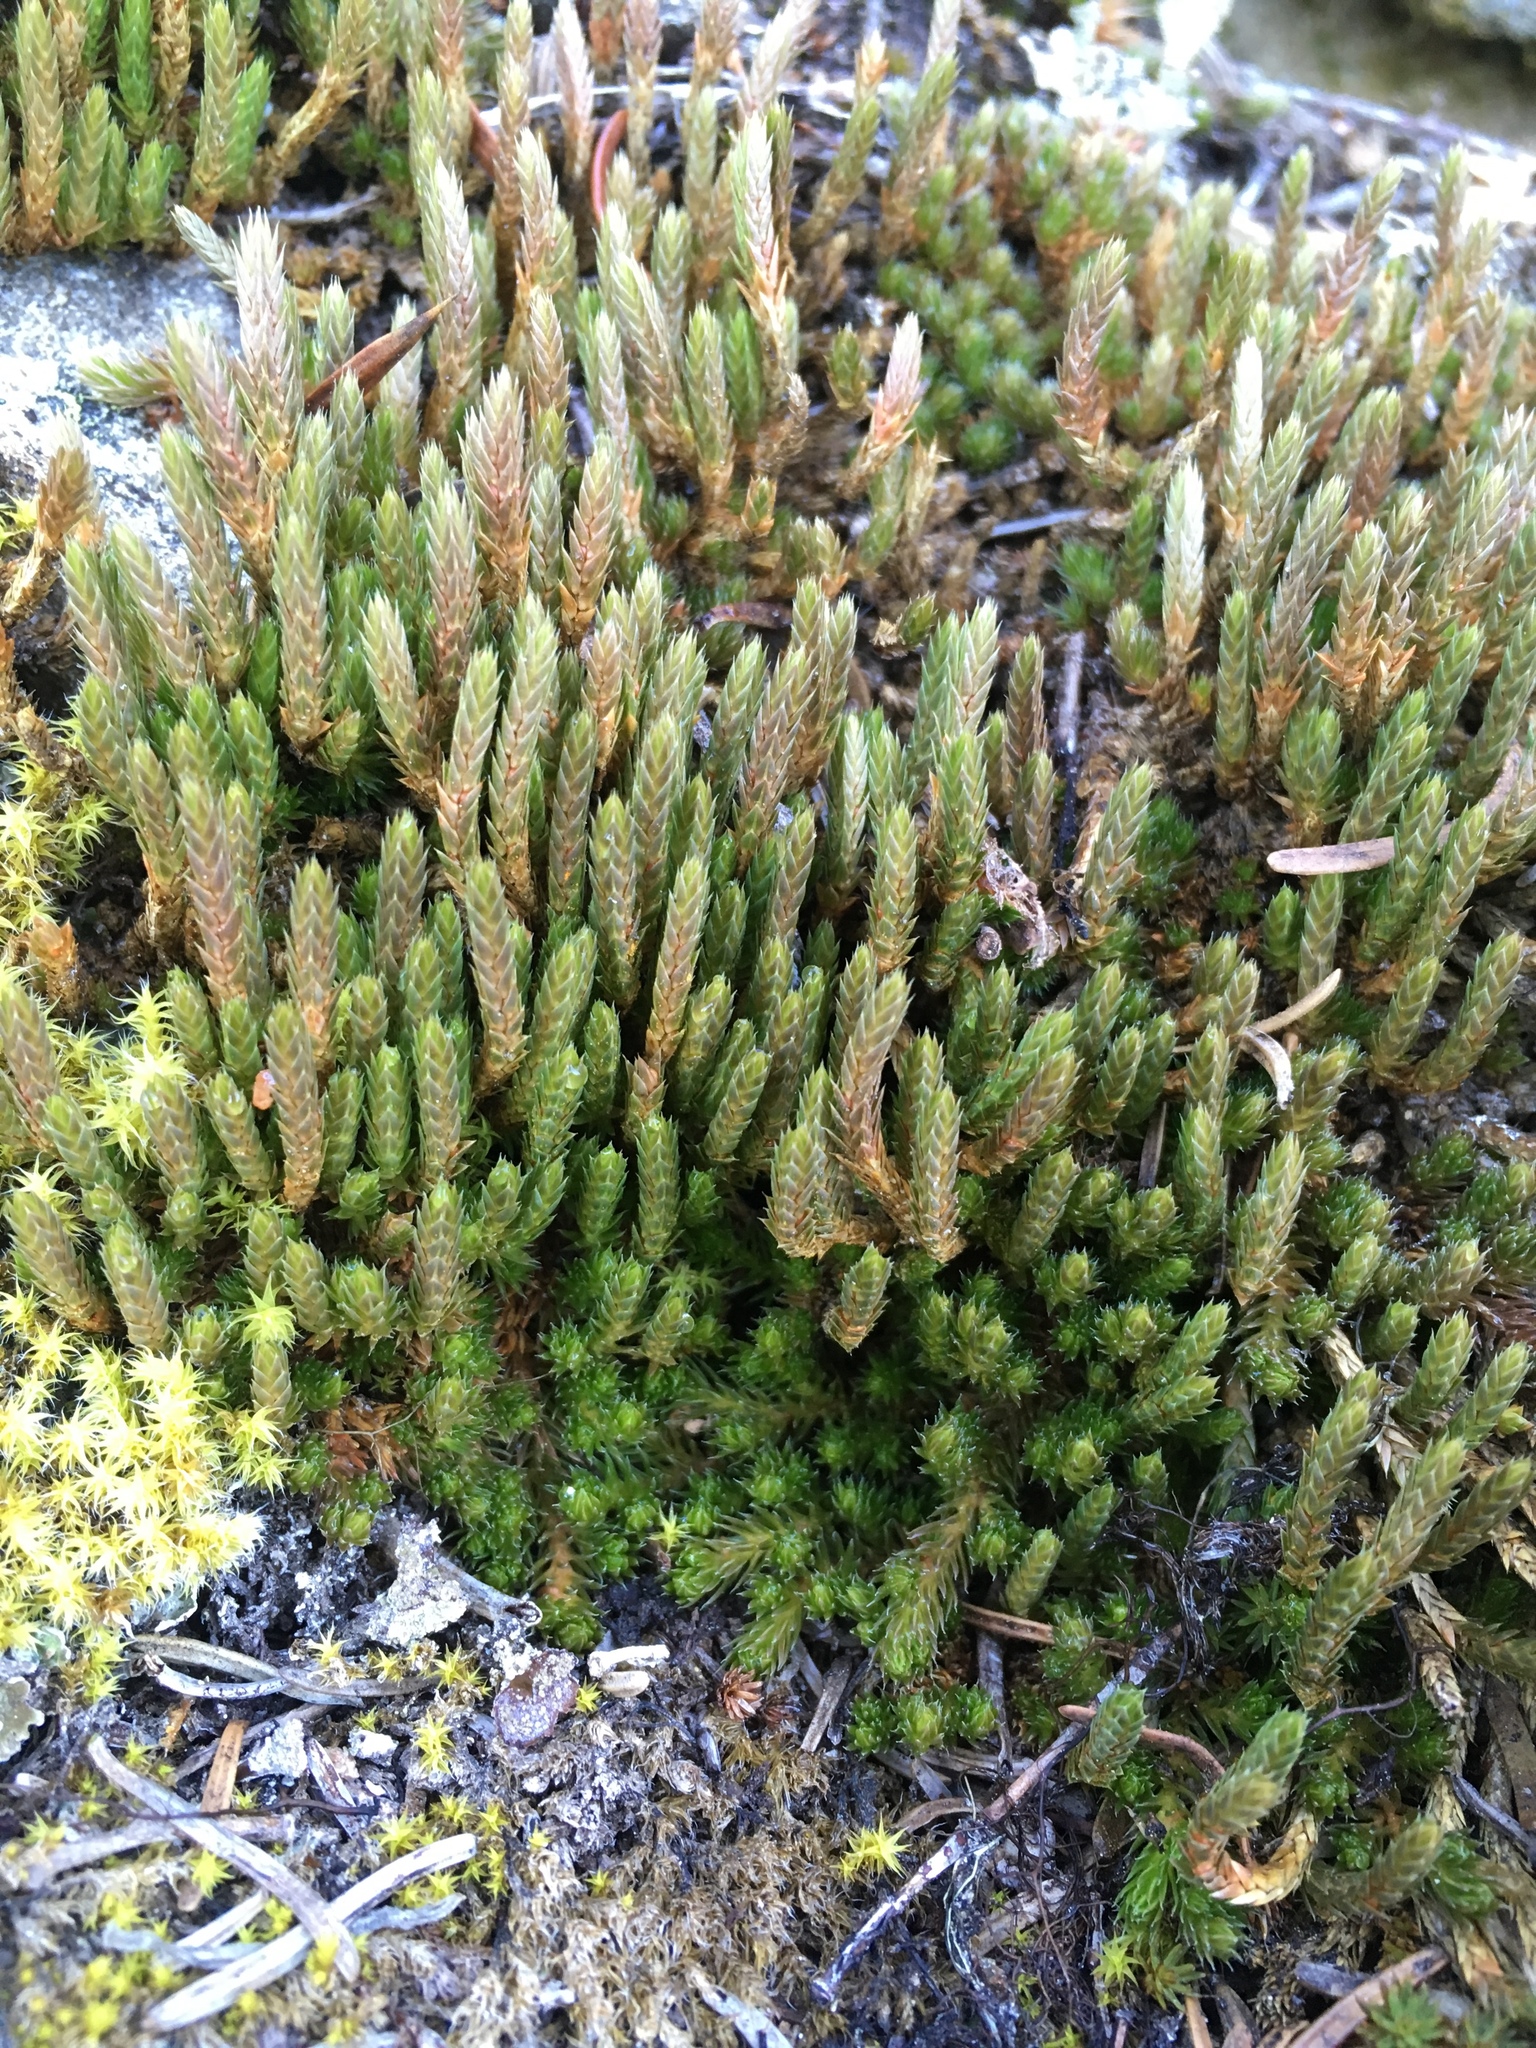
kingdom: Plantae
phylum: Tracheophyta
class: Lycopodiopsida
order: Selaginellales
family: Selaginellaceae
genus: Selaginella
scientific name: Selaginella densa
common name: Mountain spike-moss
